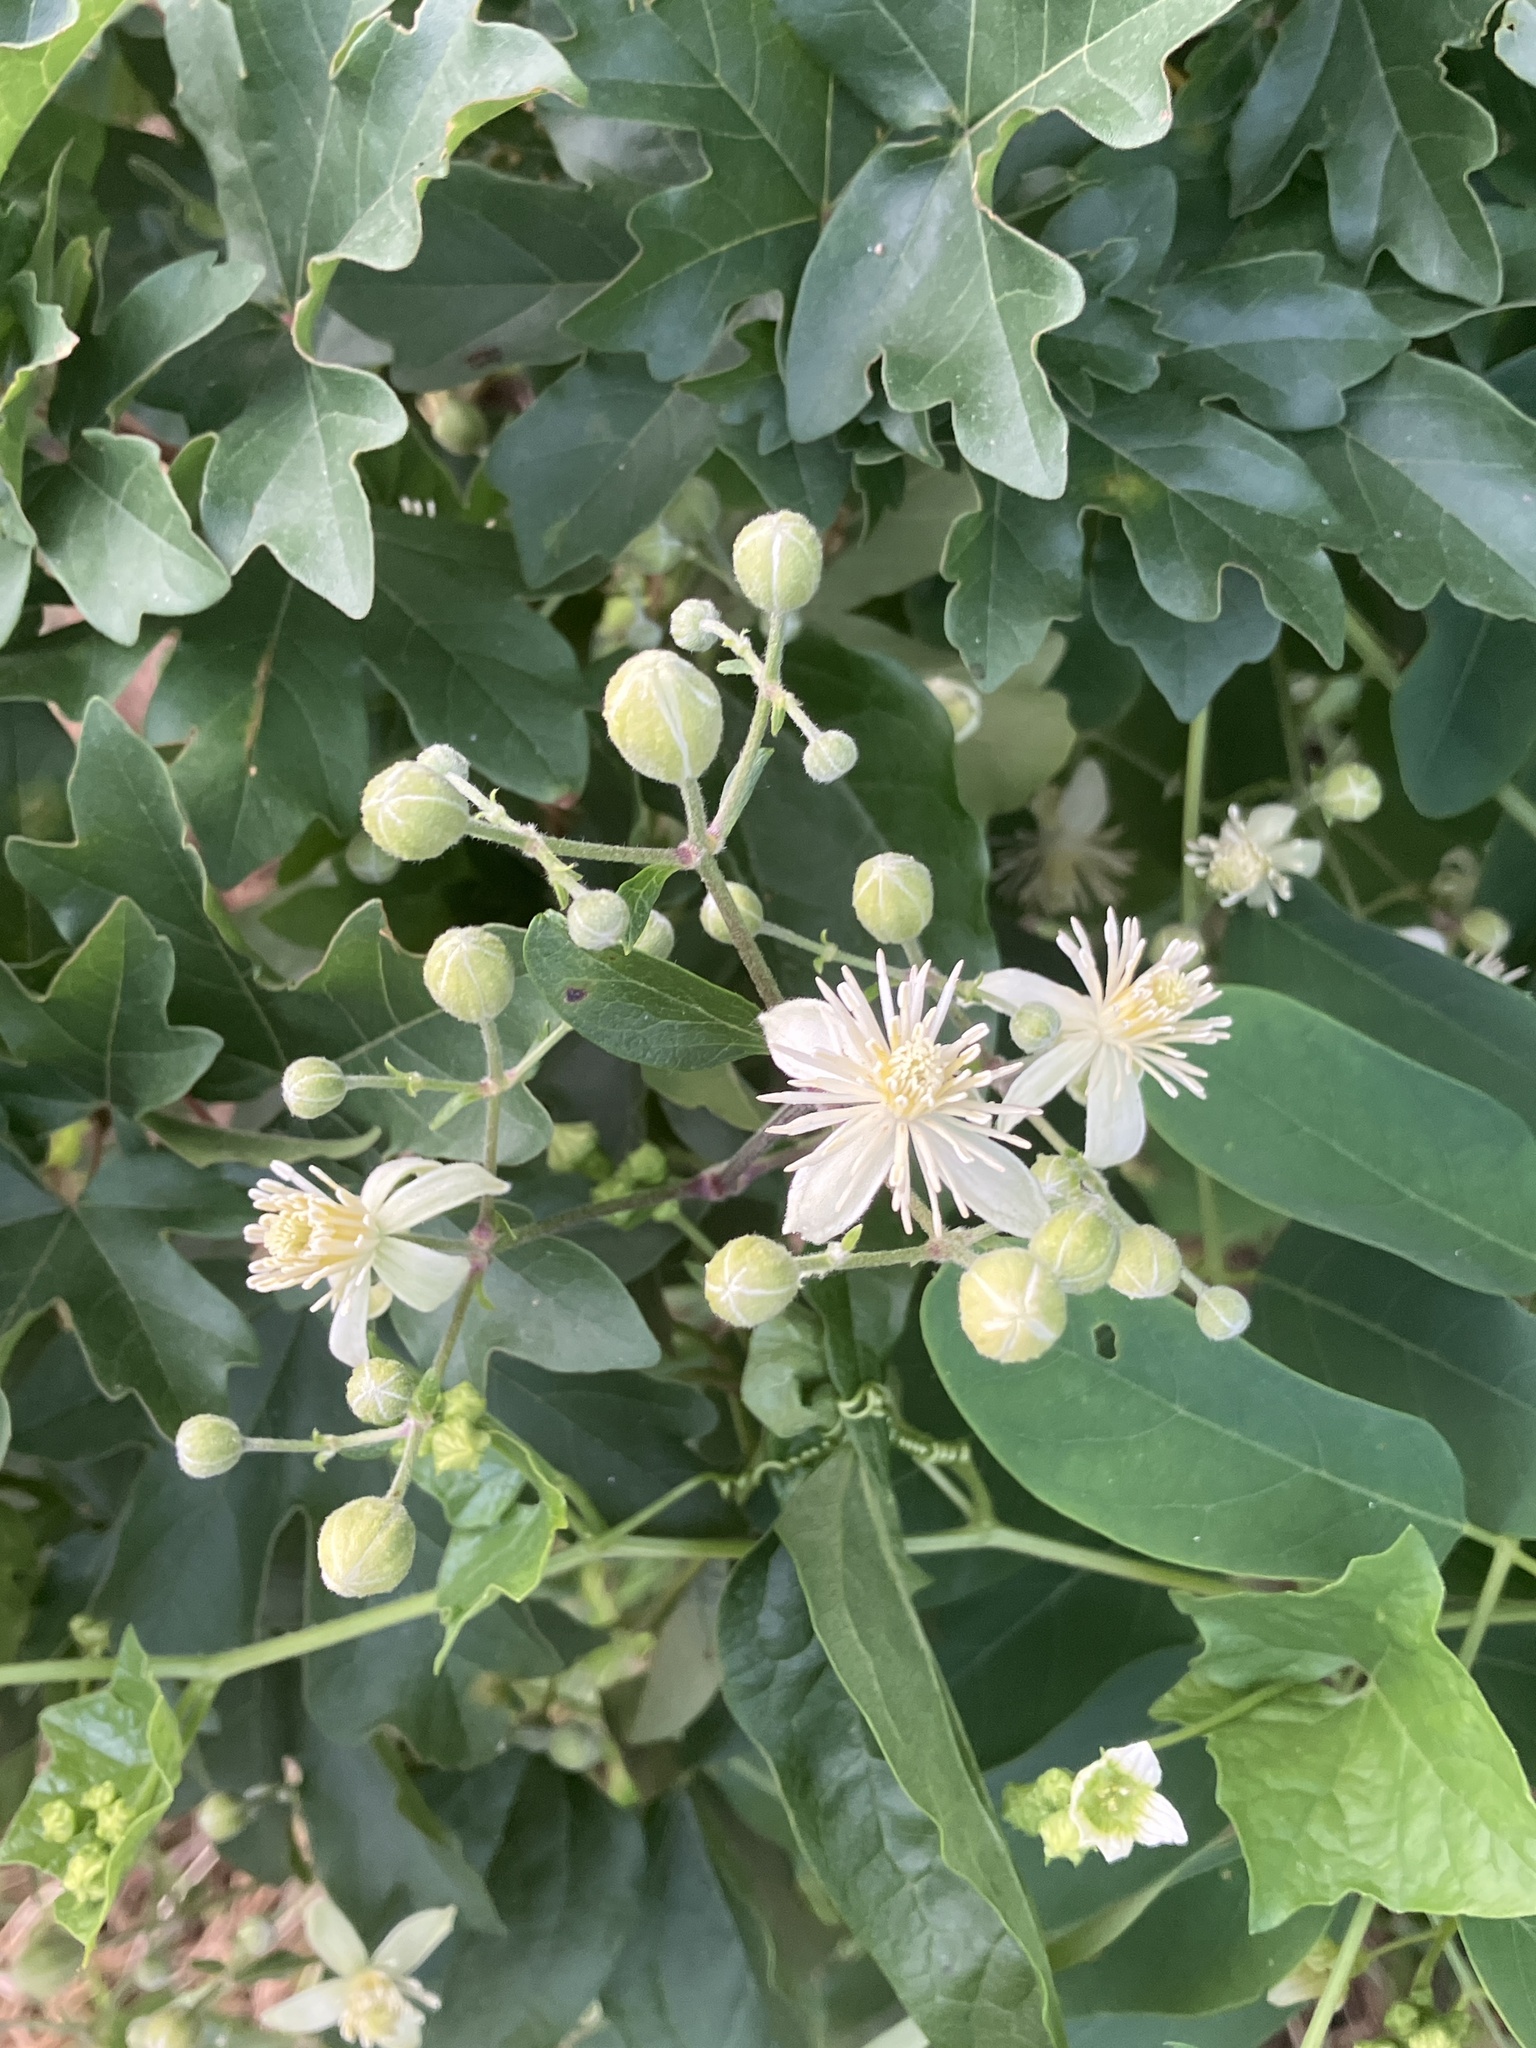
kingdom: Plantae
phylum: Tracheophyta
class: Magnoliopsida
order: Ranunculales
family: Ranunculaceae
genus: Clematis
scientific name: Clematis vitalba
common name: Evergreen clematis
